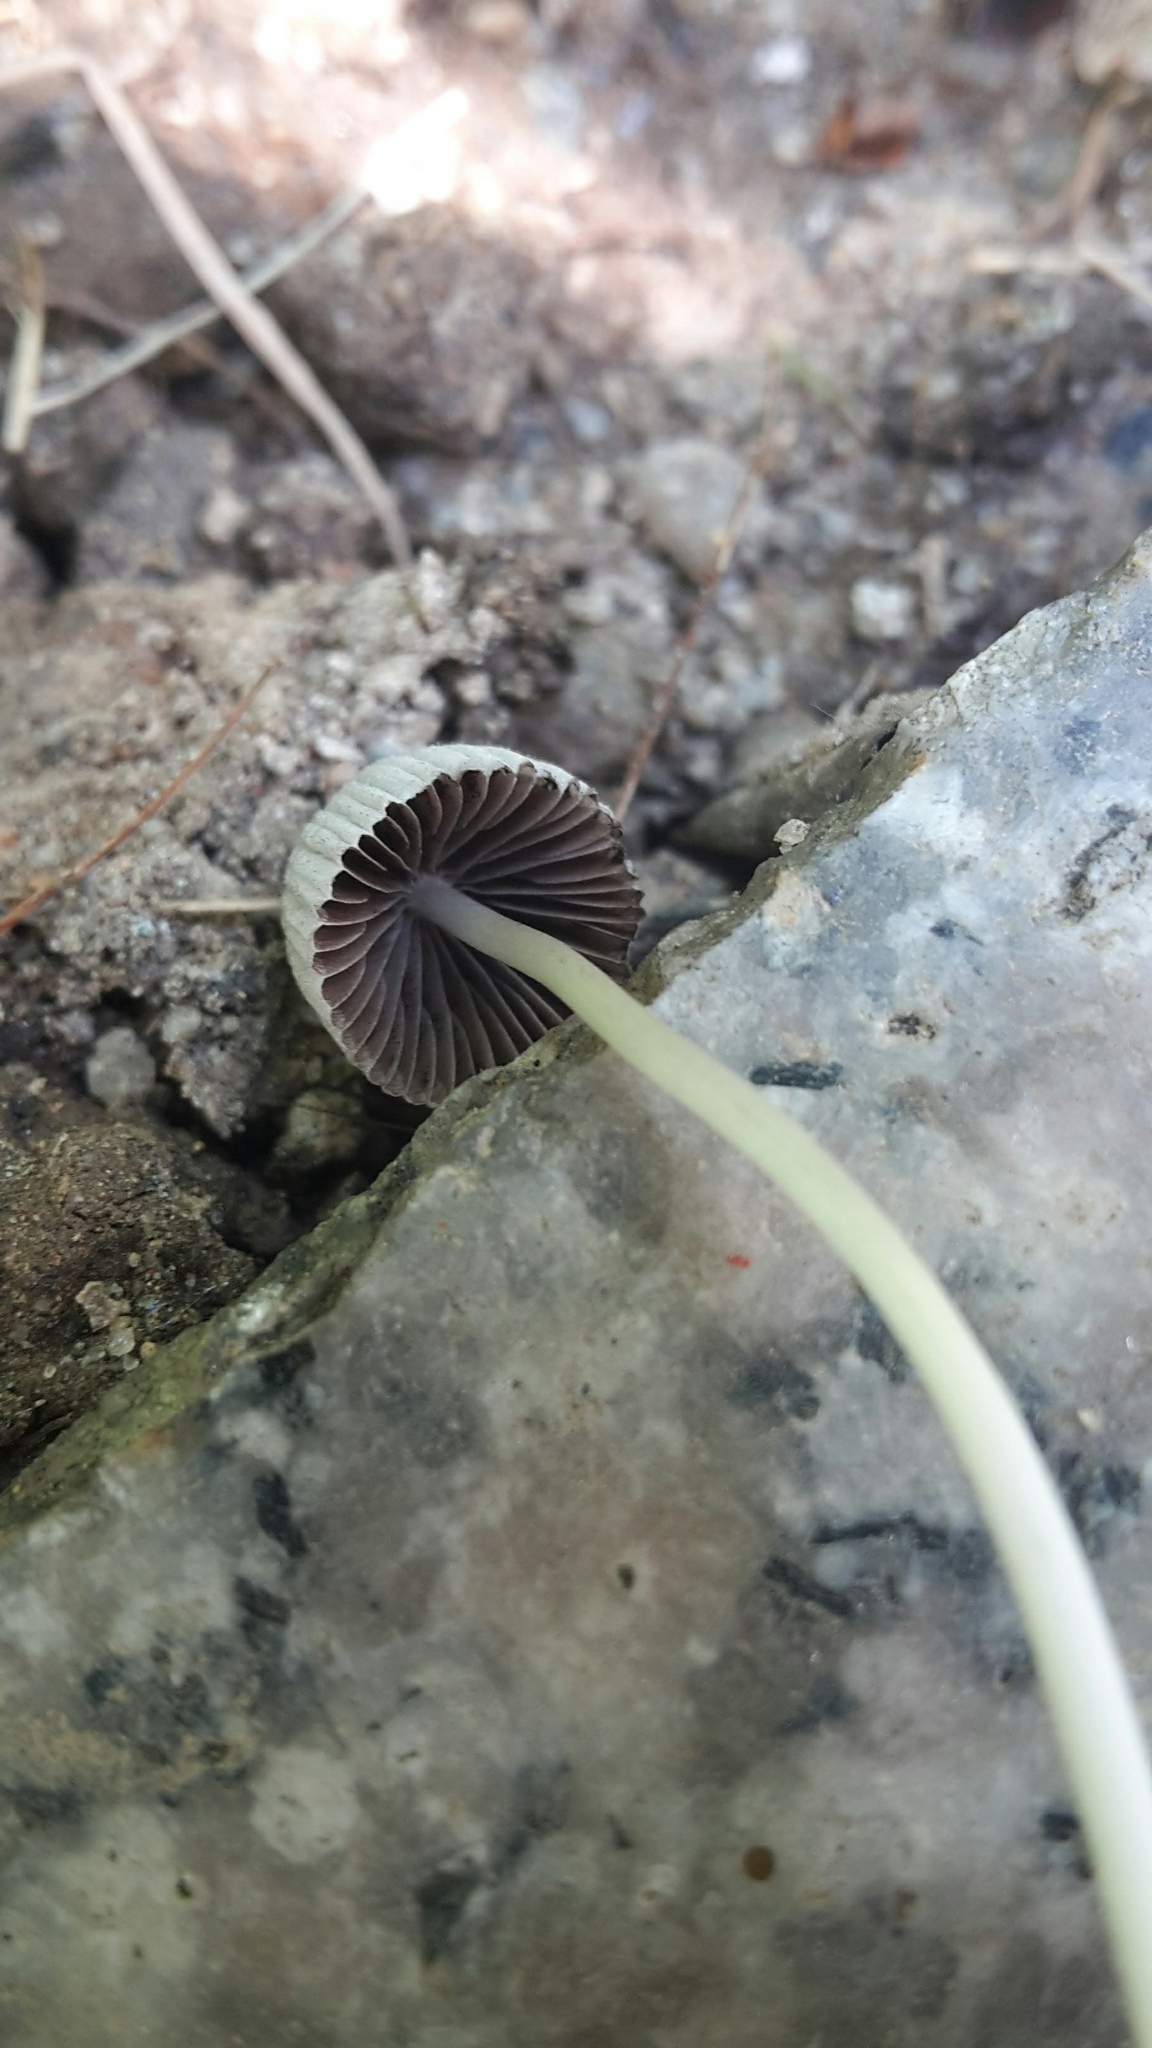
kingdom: Fungi
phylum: Basidiomycota
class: Agaricomycetes
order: Agaricales
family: Psathyrellaceae
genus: Coprinellus
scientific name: Coprinellus disseminatus
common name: Fairies' bonnets
